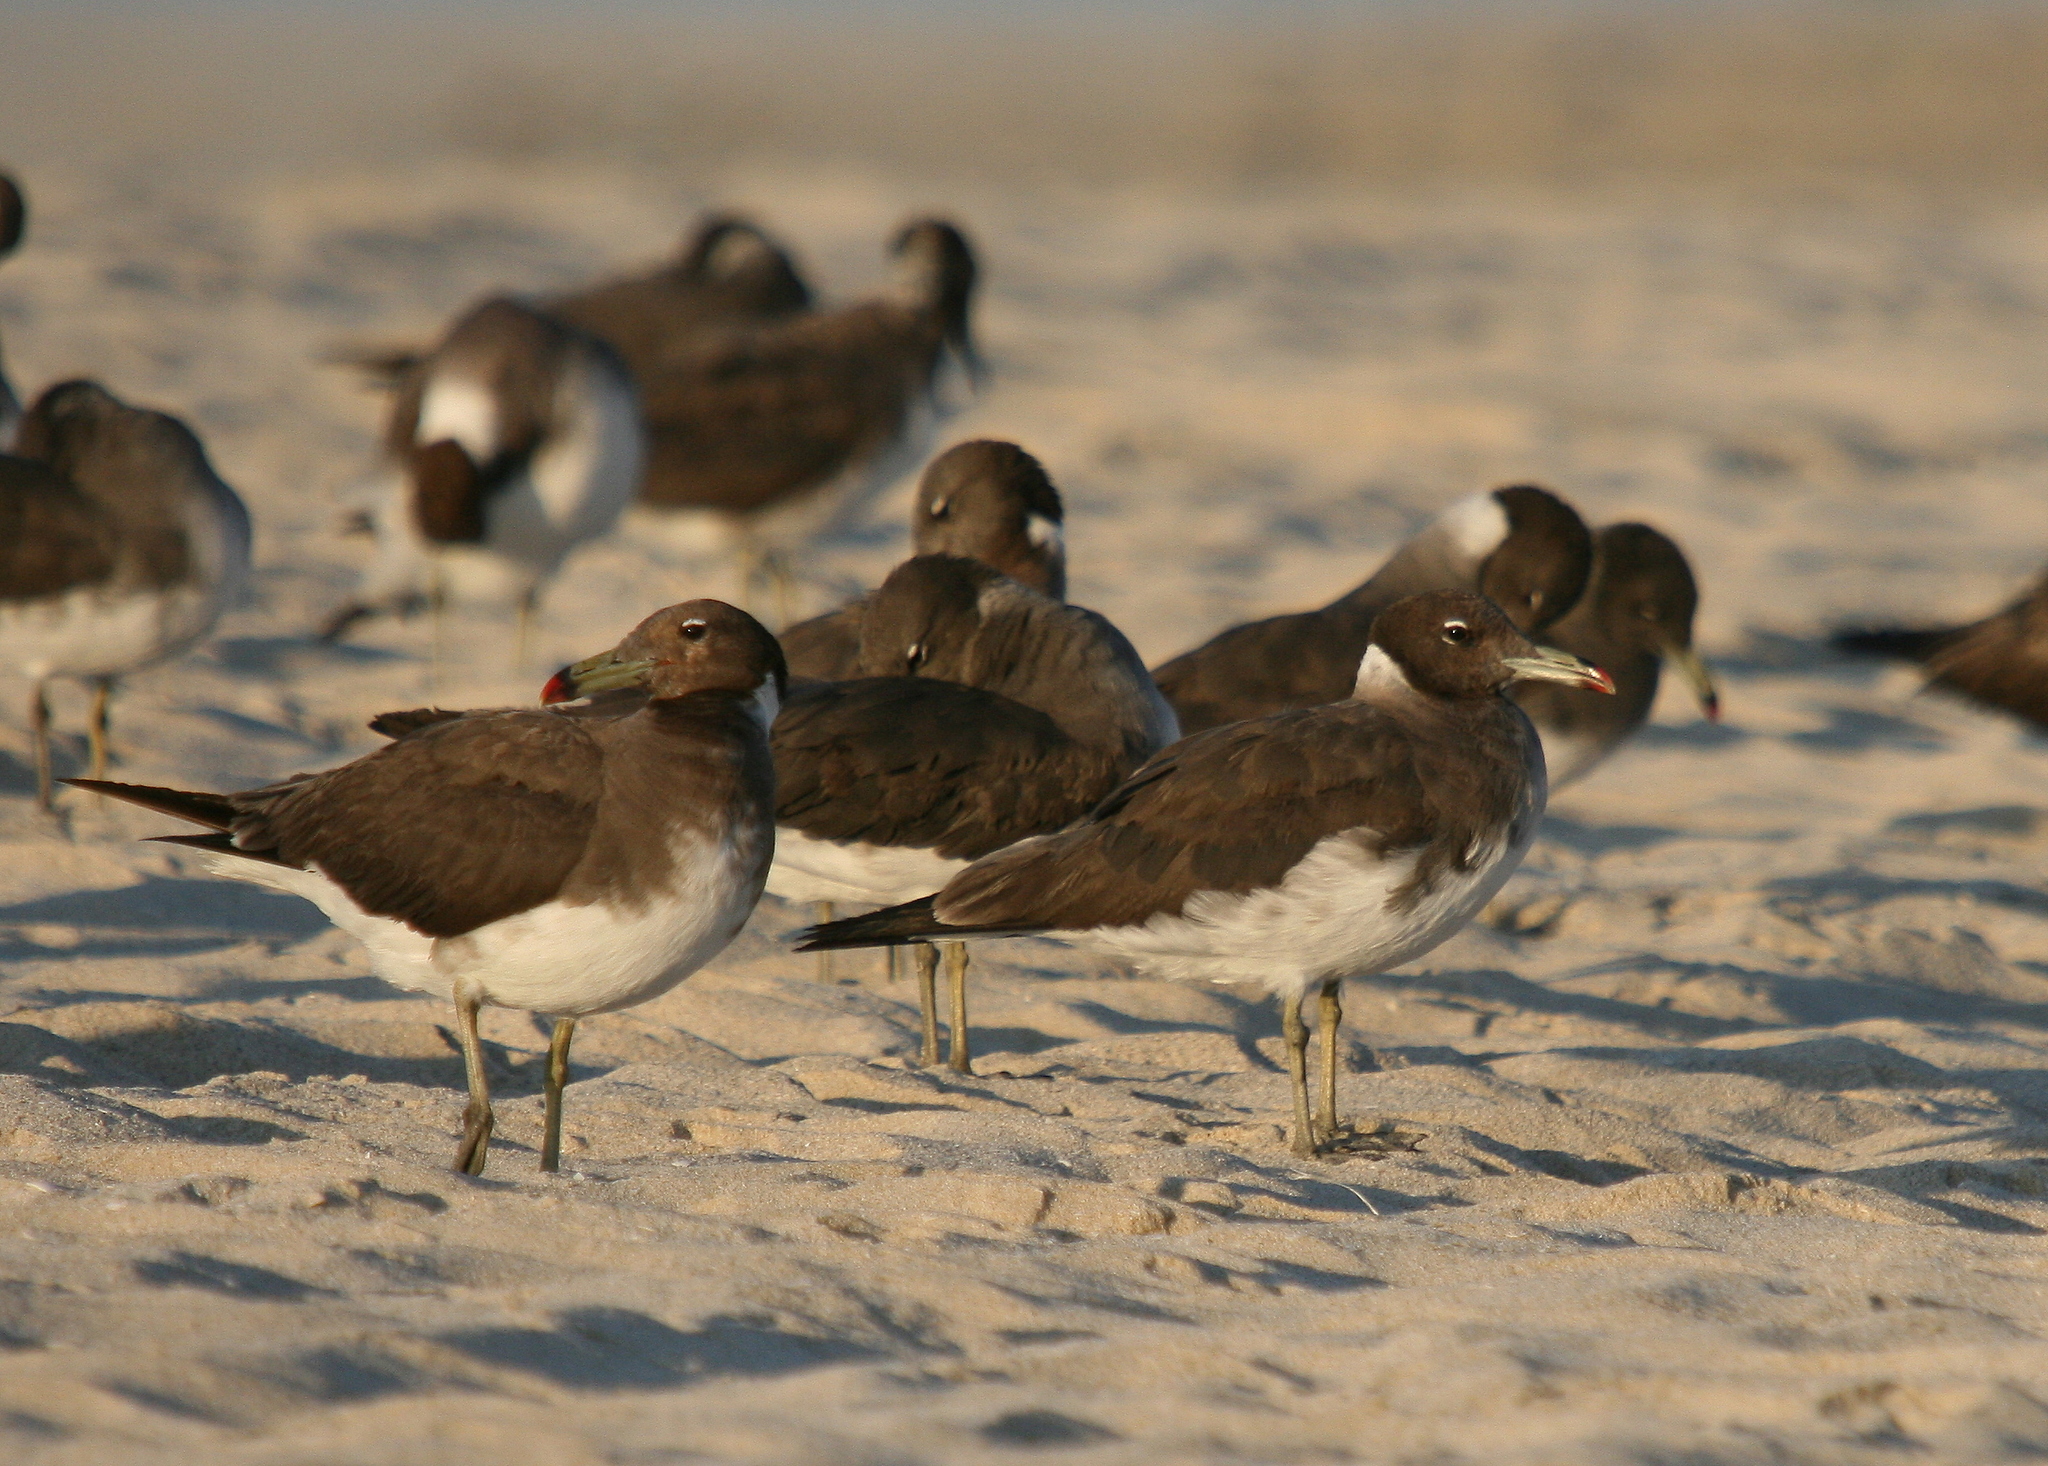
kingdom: Animalia
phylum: Chordata
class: Aves
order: Charadriiformes
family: Laridae
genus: Ichthyaetus
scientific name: Ichthyaetus hemprichii
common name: Sooty gull
